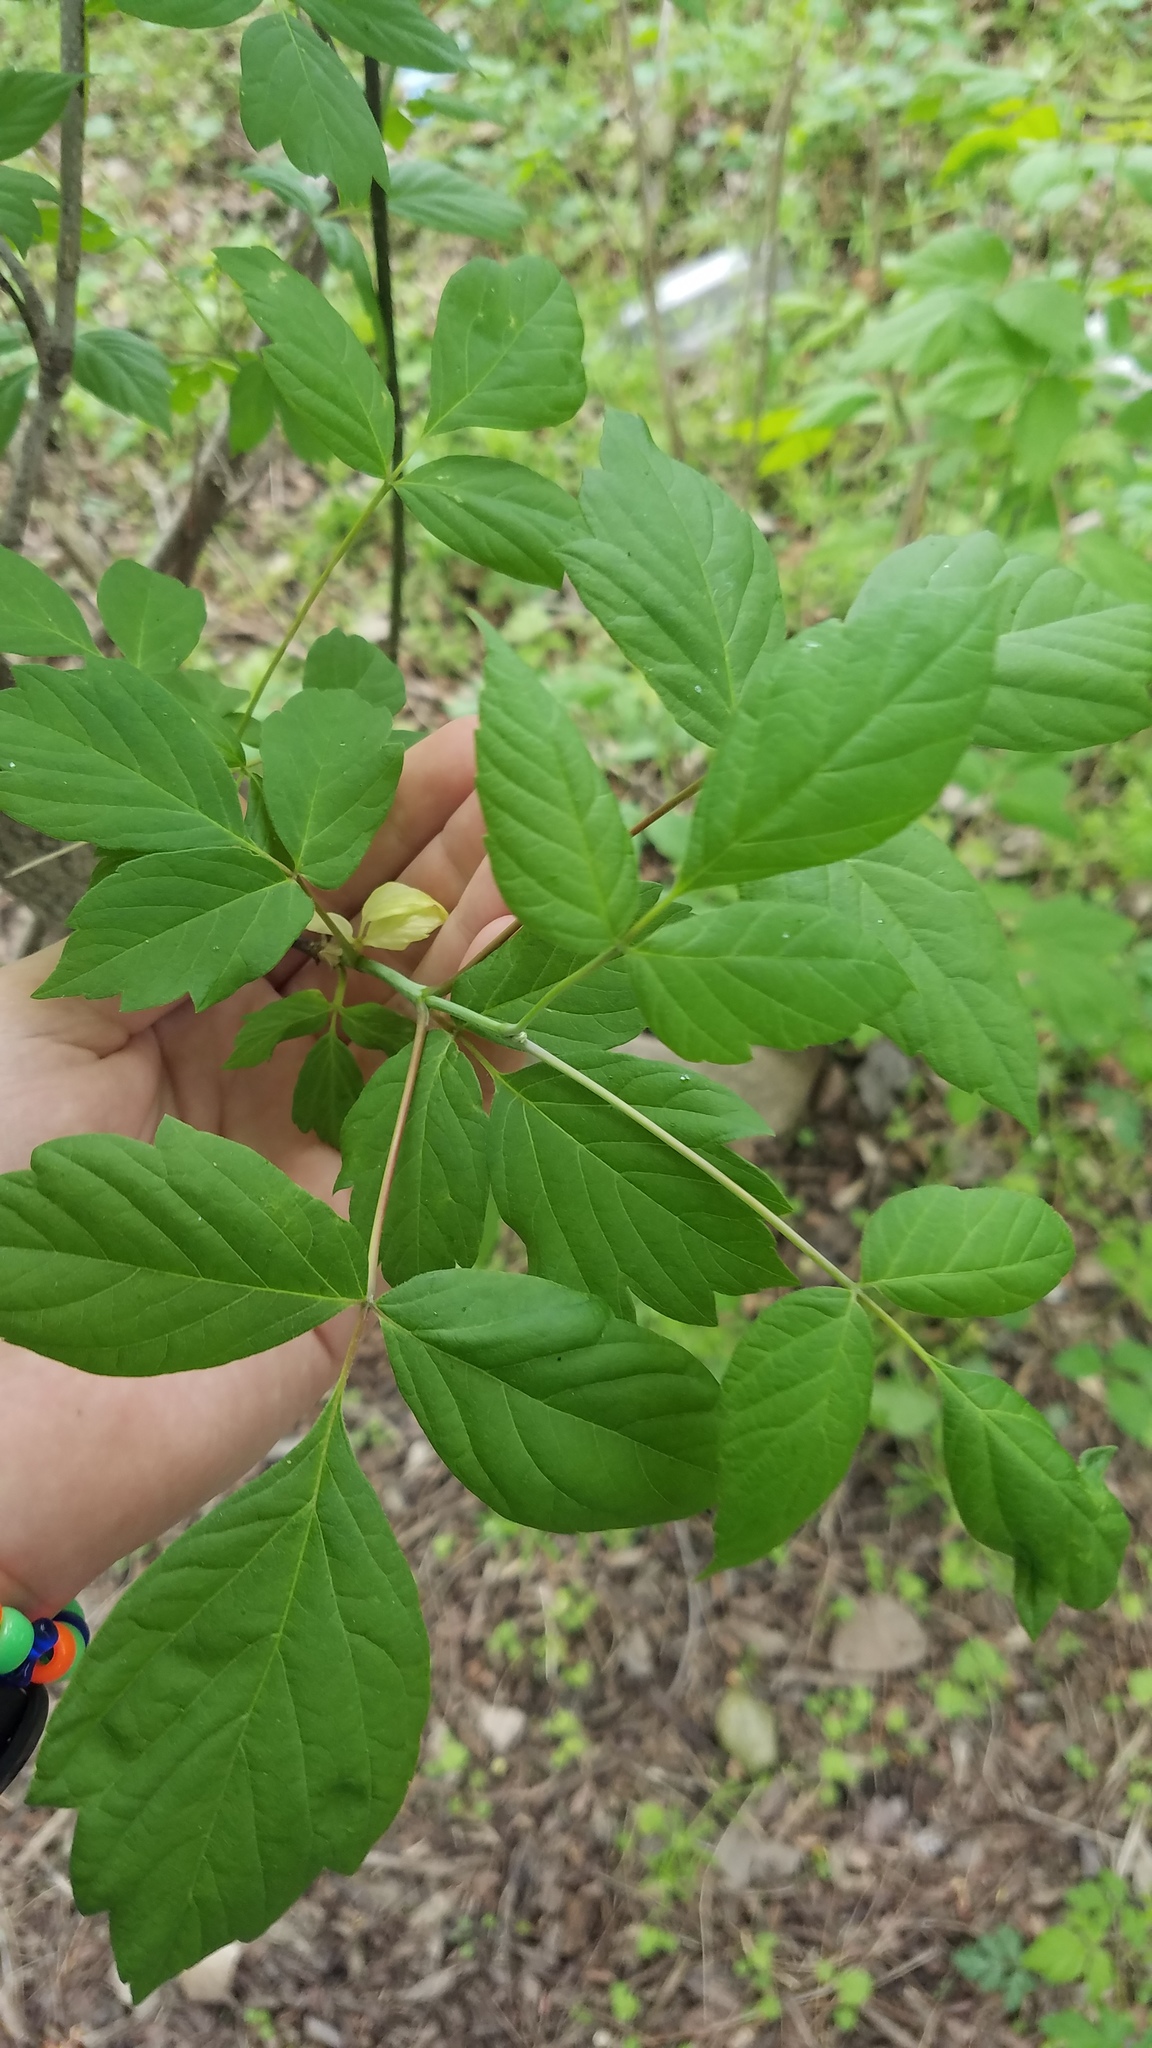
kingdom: Animalia
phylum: Arthropoda
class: Insecta
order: Diptera
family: Cecidomyiidae
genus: Contarinia
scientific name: Contarinia negundinis
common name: Boxelder budgall midge
